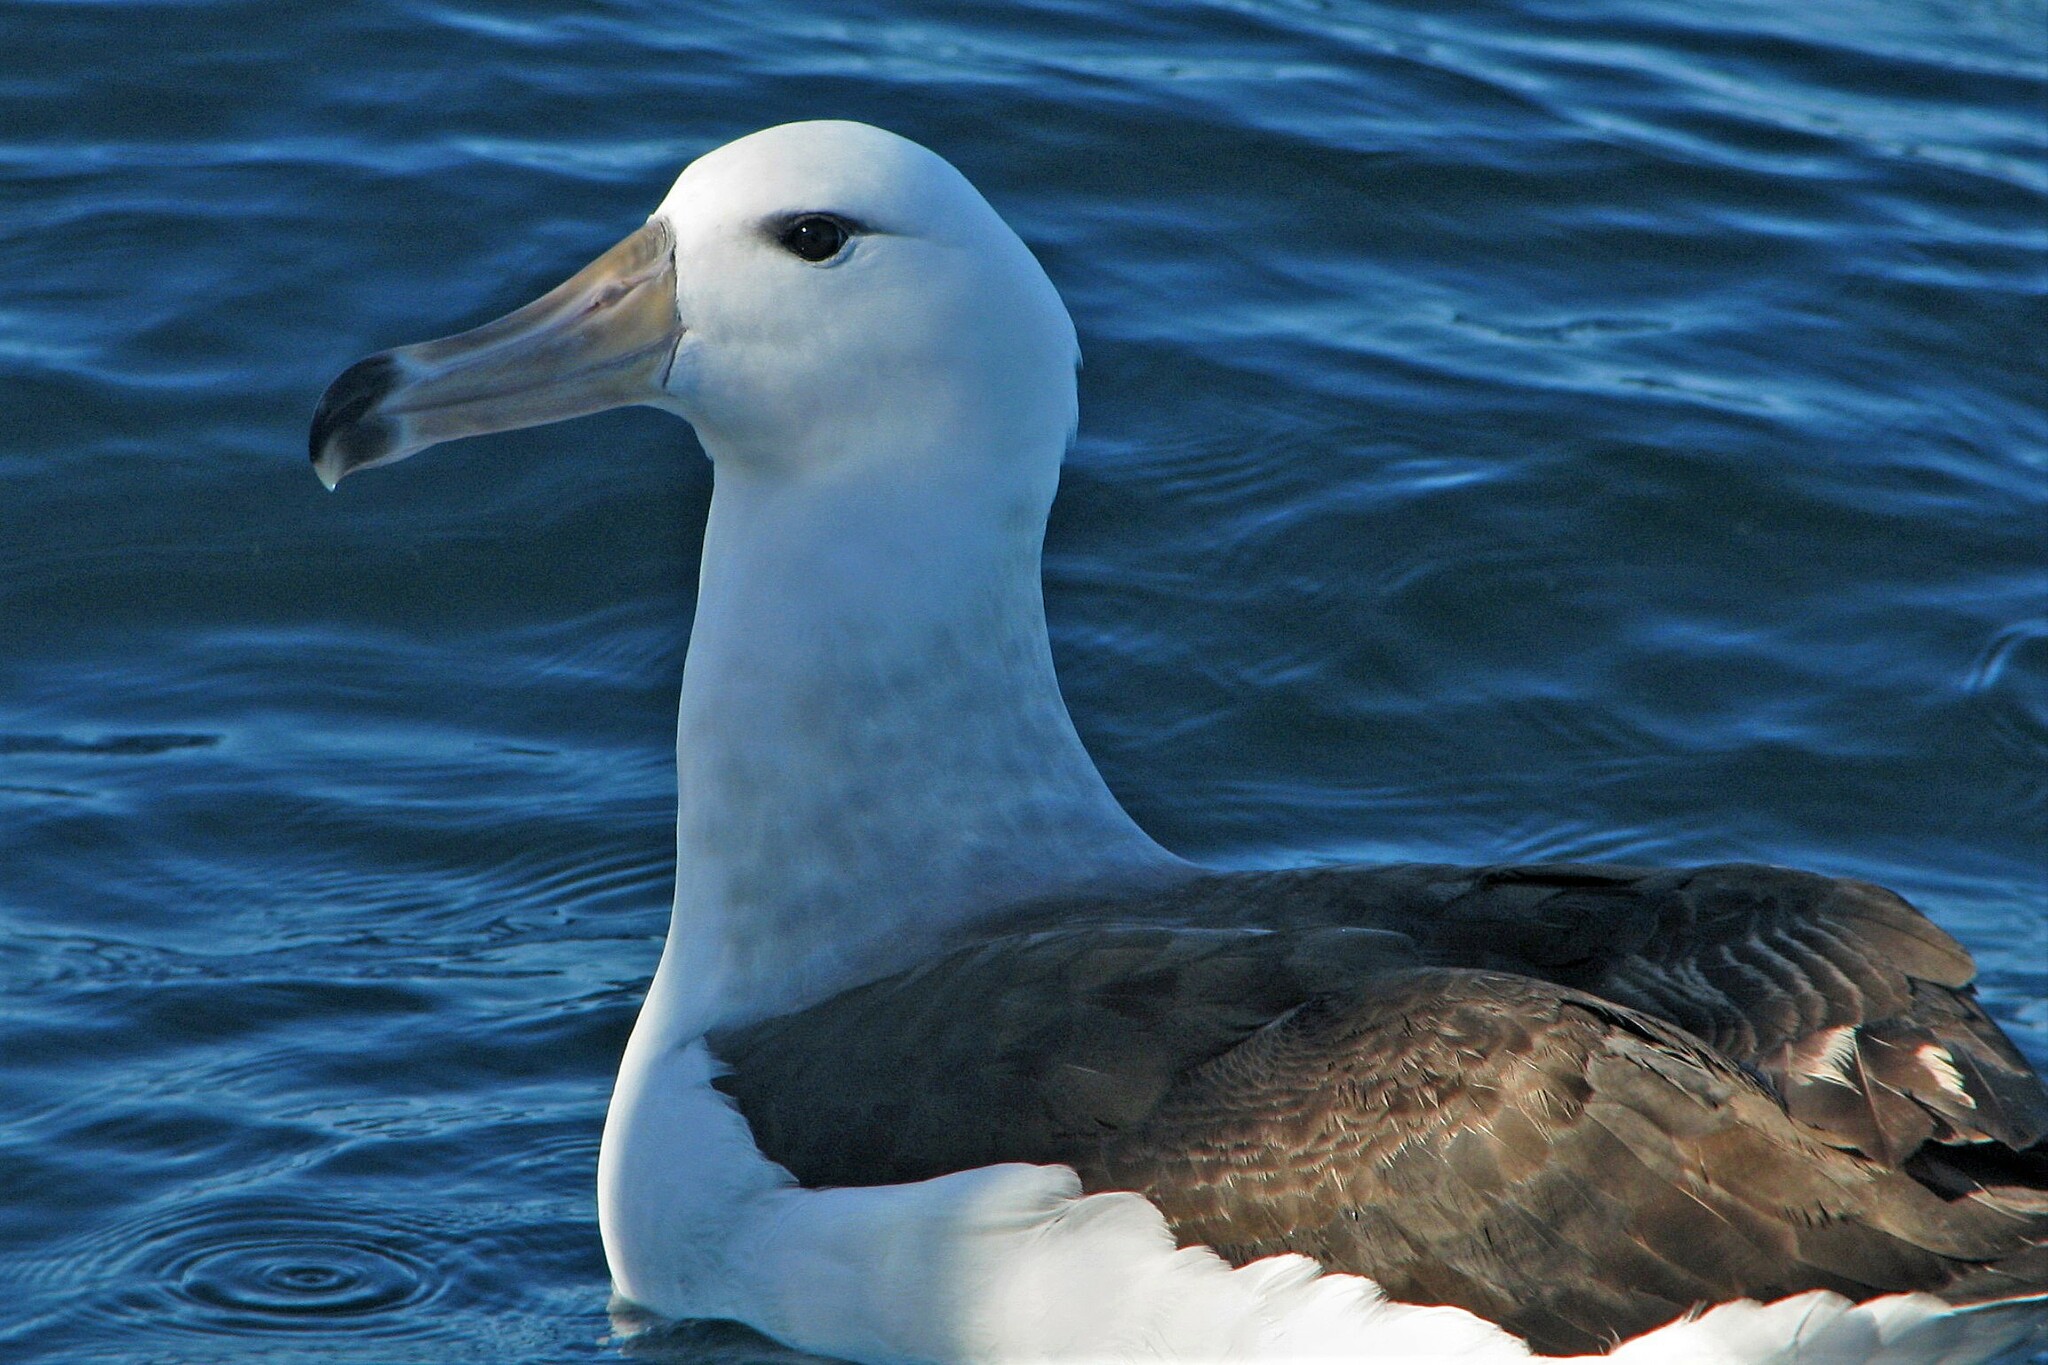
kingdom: Animalia
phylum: Chordata
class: Aves
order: Procellariiformes
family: Diomedeidae
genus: Thalassarche
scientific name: Thalassarche melanophris
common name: Black-browed albatross
